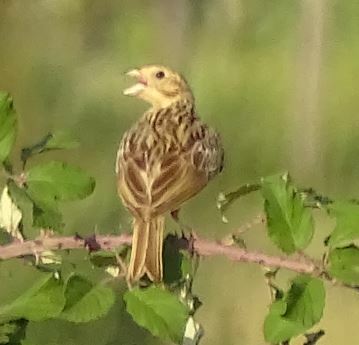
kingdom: Animalia
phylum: Chordata
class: Aves
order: Passeriformes
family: Emberizidae
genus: Emberiza
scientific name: Emberiza calandra
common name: Corn bunting
